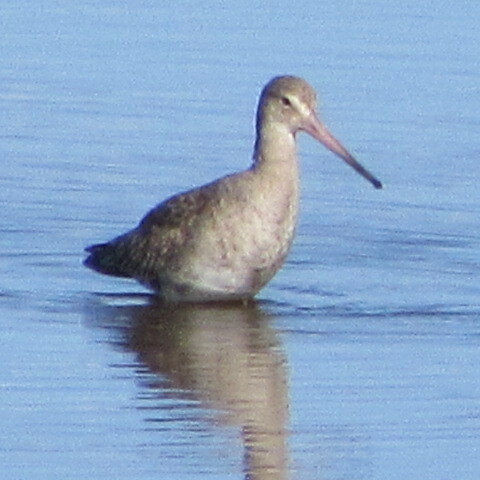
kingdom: Animalia
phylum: Chordata
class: Aves
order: Charadriiformes
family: Scolopacidae
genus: Limosa
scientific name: Limosa limosa
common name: Black-tailed godwit
